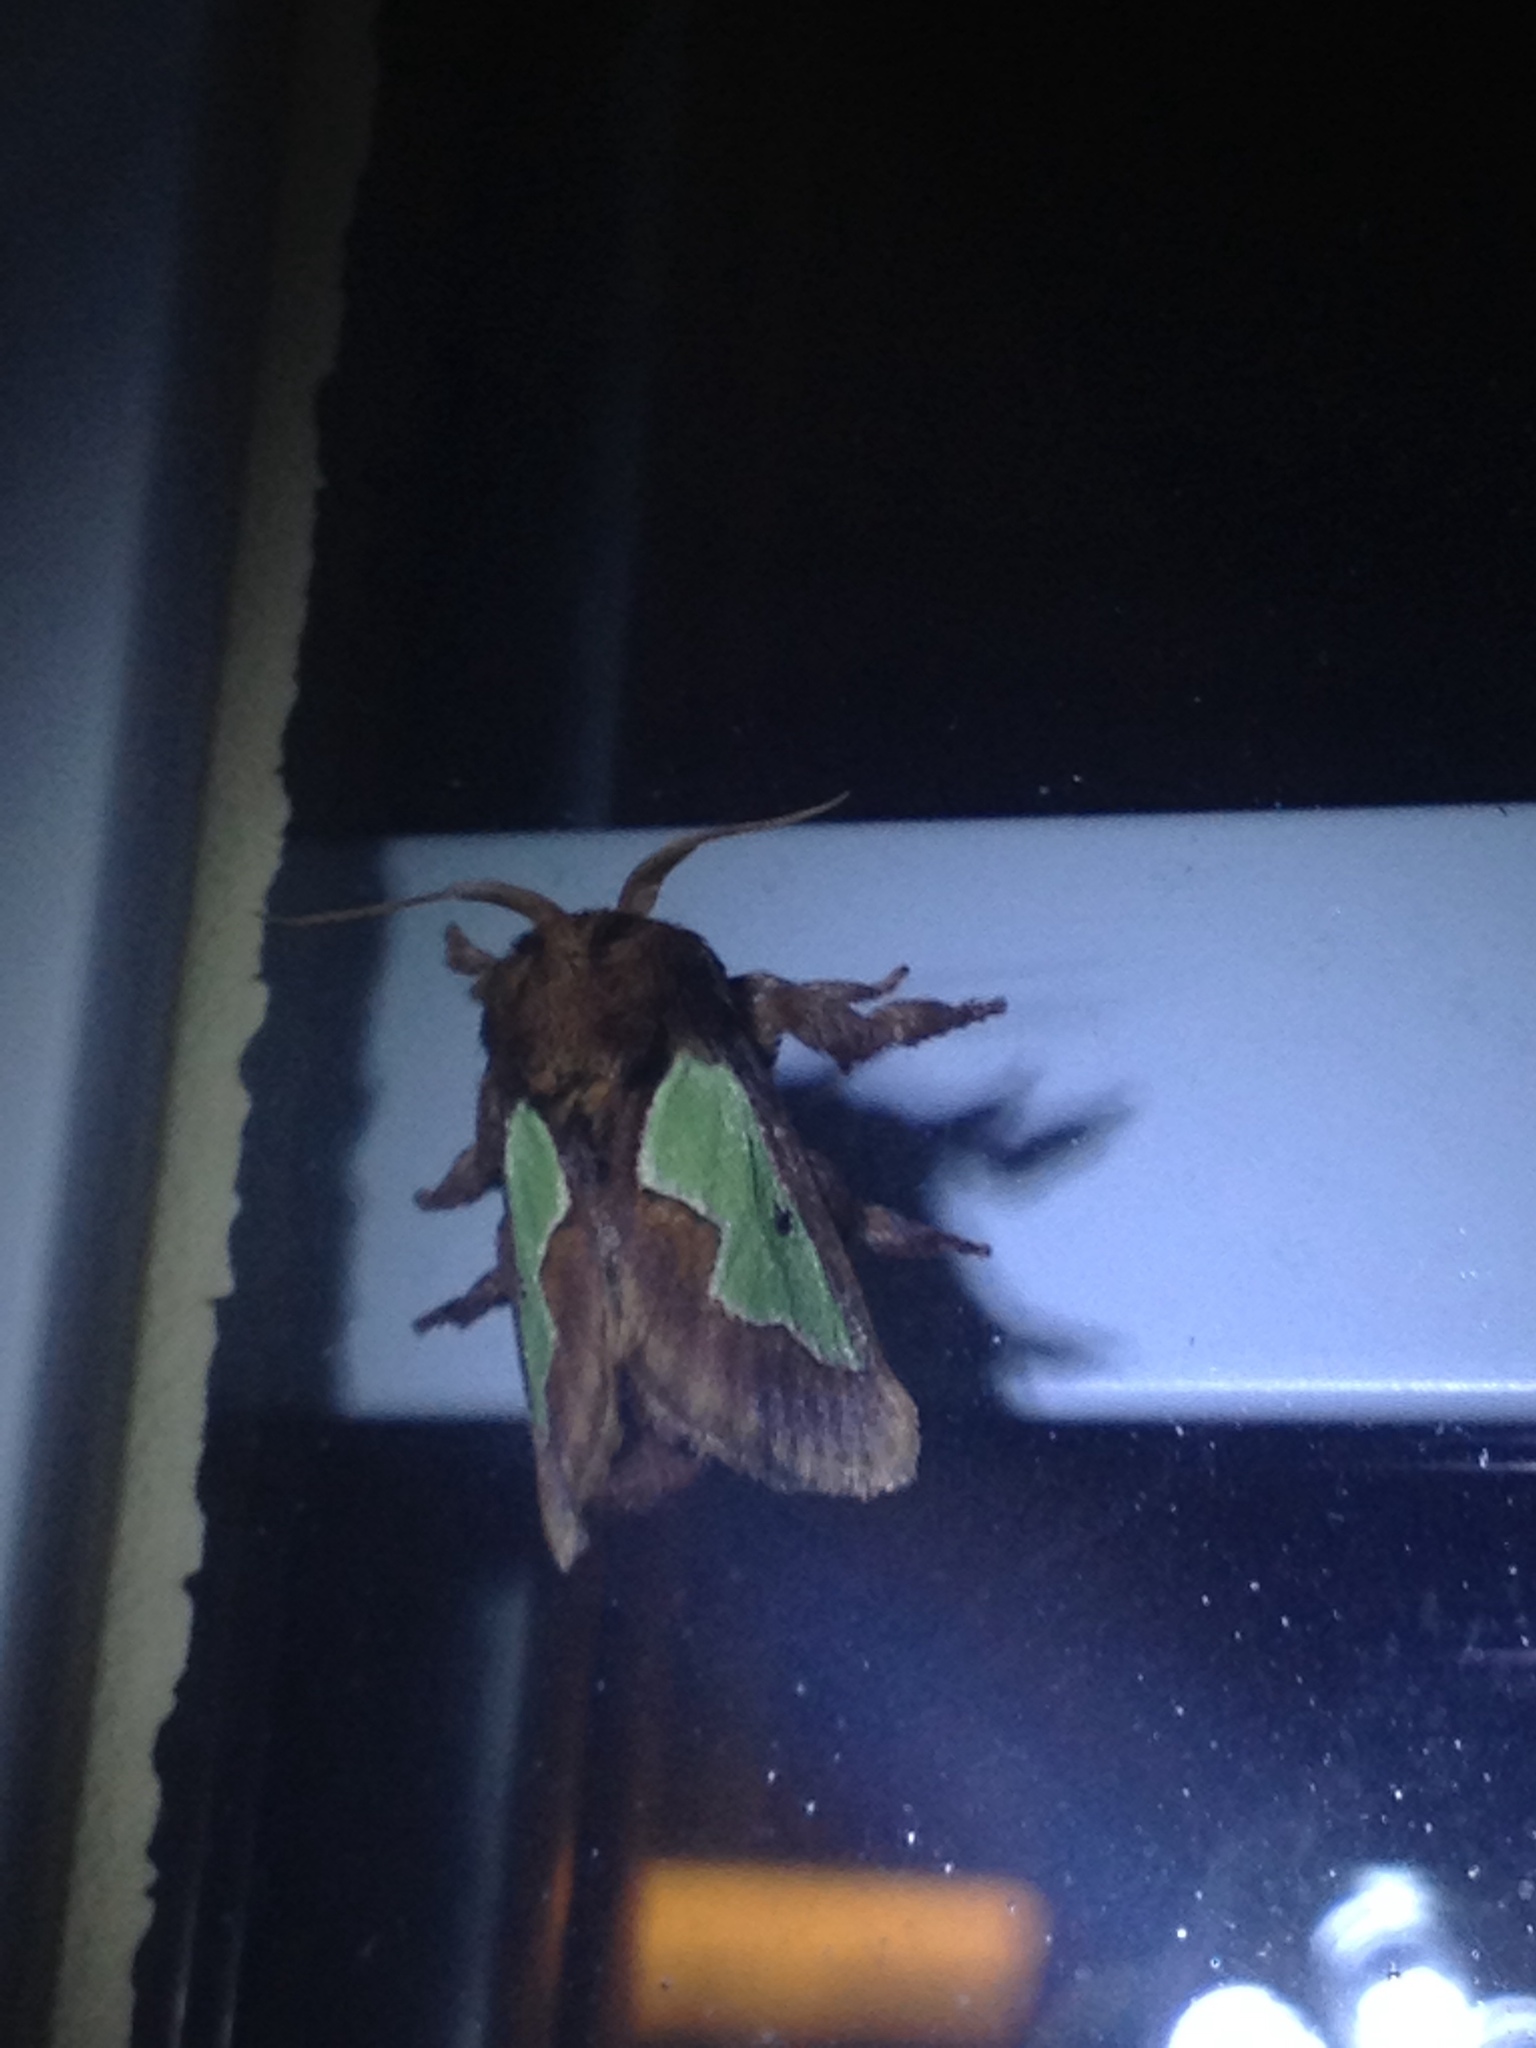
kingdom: Animalia
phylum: Arthropoda
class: Insecta
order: Lepidoptera
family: Limacodidae
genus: Euclea
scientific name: Euclea delphinii
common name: Spiny oak-slug moth
